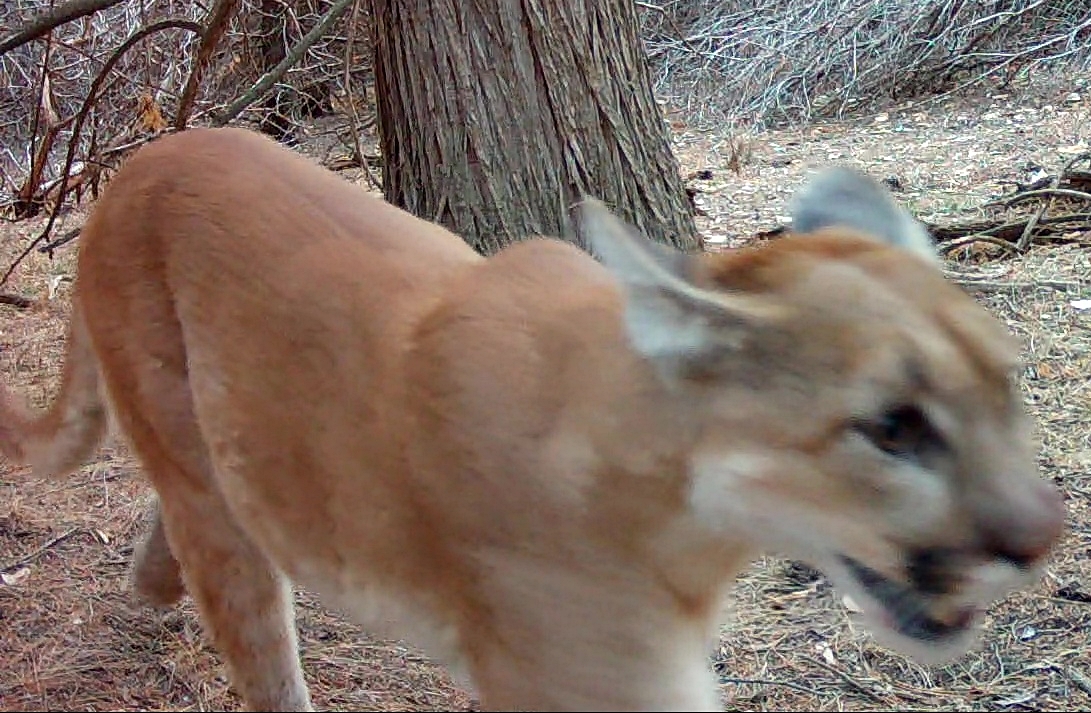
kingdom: Animalia
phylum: Chordata
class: Mammalia
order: Carnivora
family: Felidae
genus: Puma
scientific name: Puma concolor
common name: Puma
